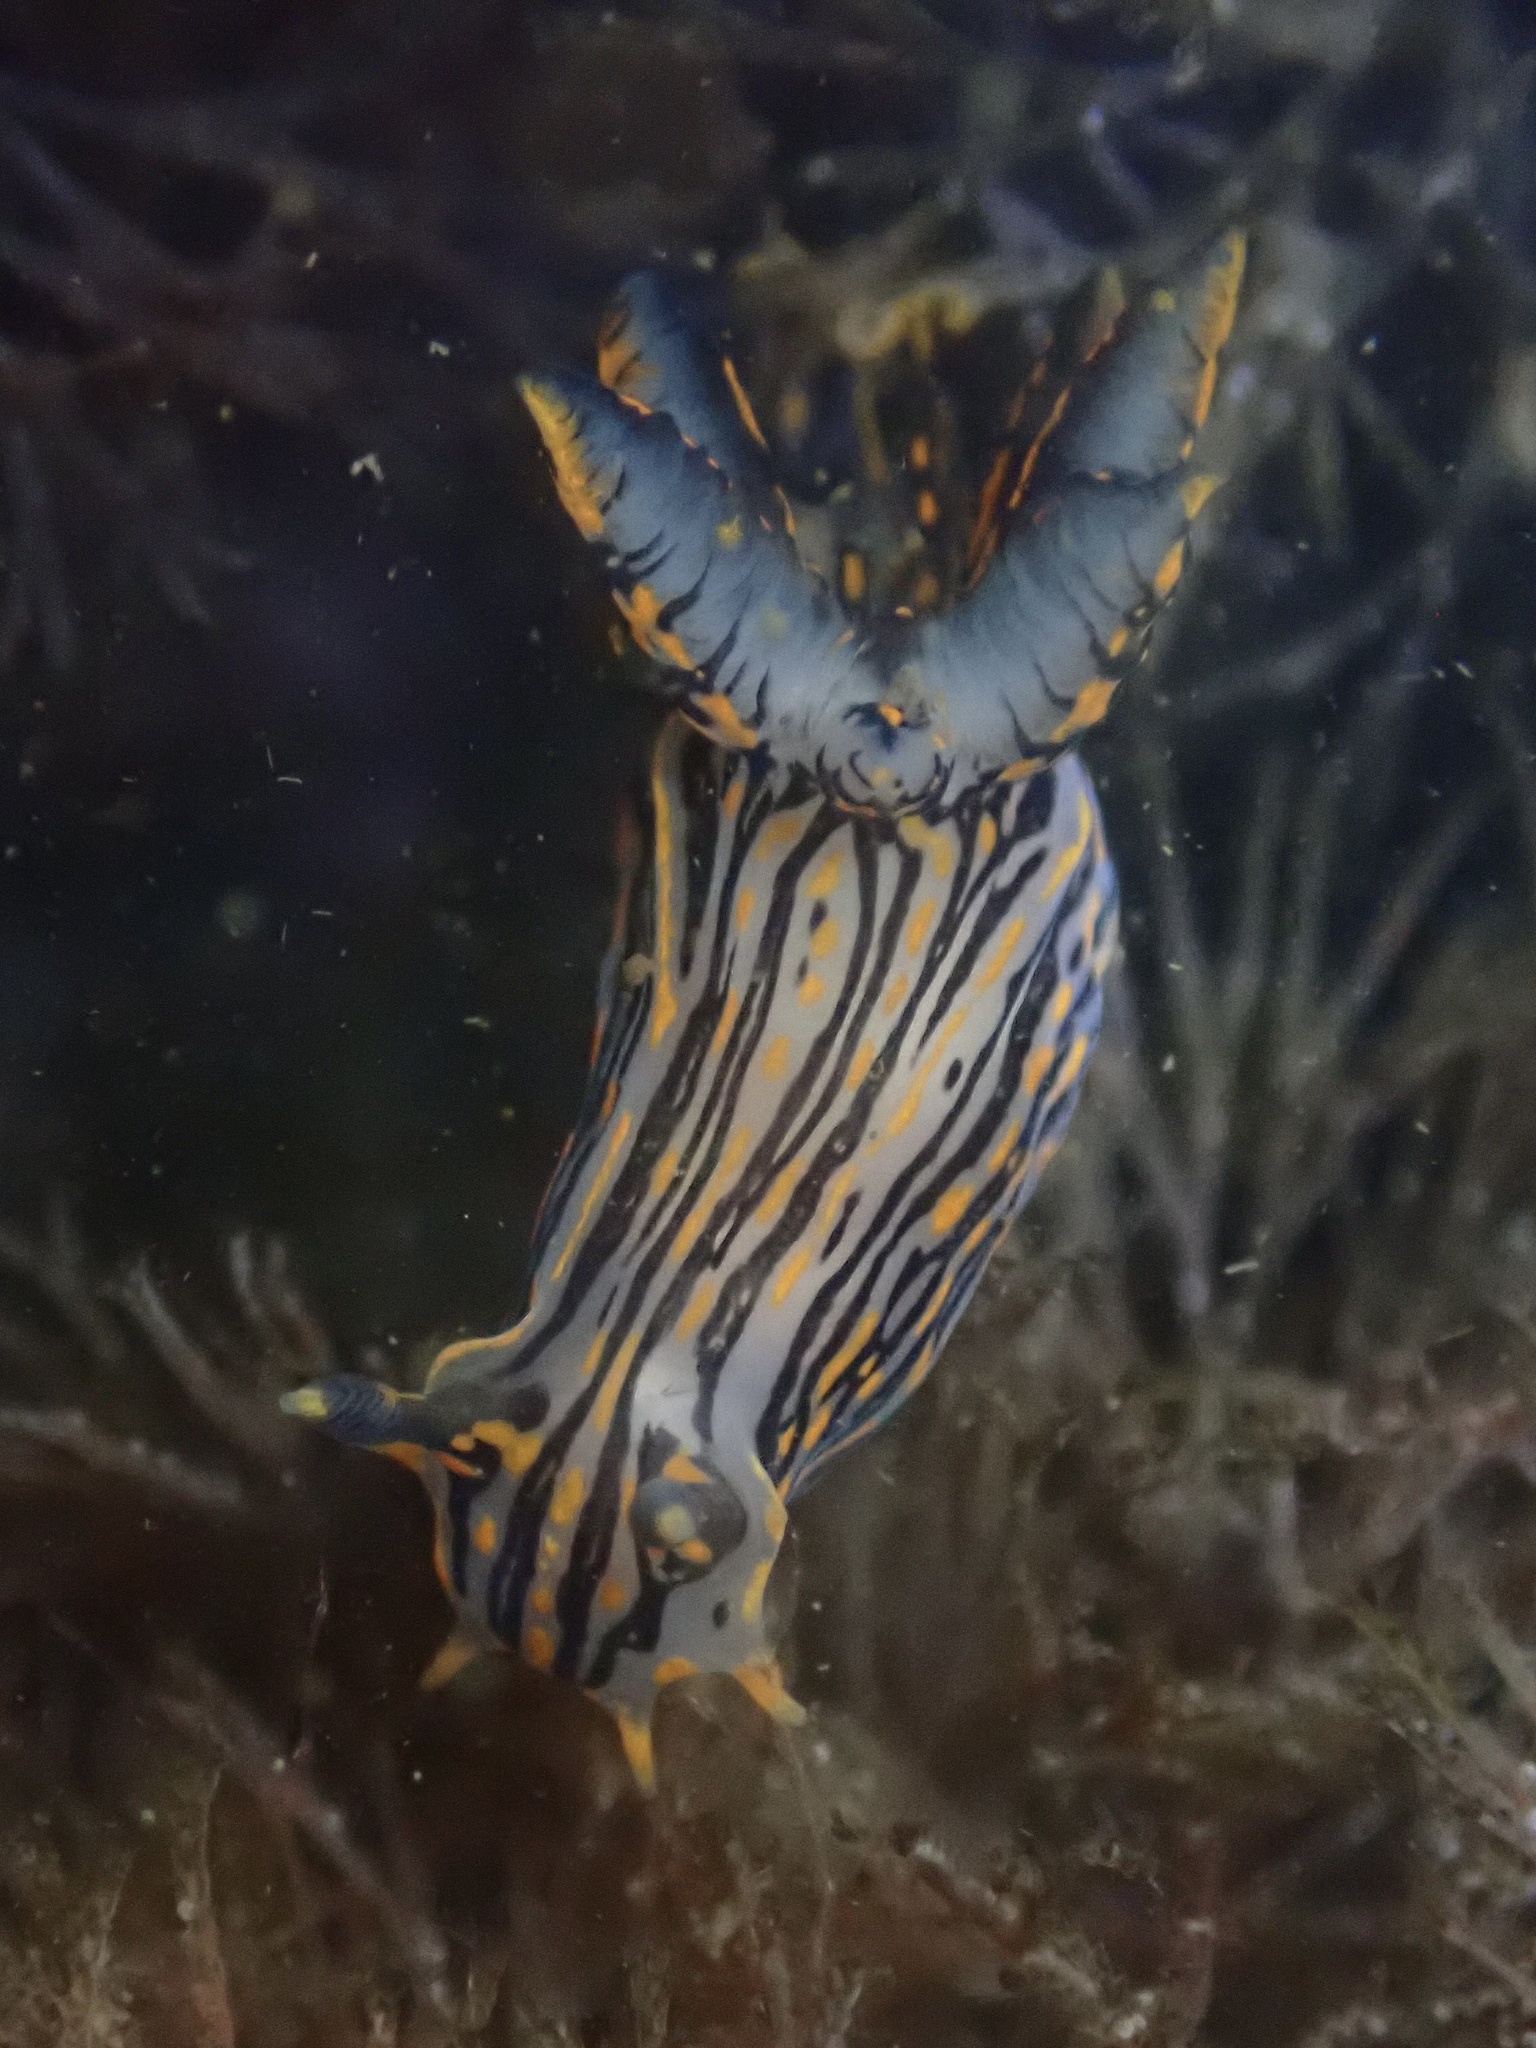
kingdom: Animalia
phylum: Mollusca
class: Gastropoda
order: Nudibranchia
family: Polyceridae
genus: Polycera
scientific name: Polycera atra
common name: Orange-spike polycera
